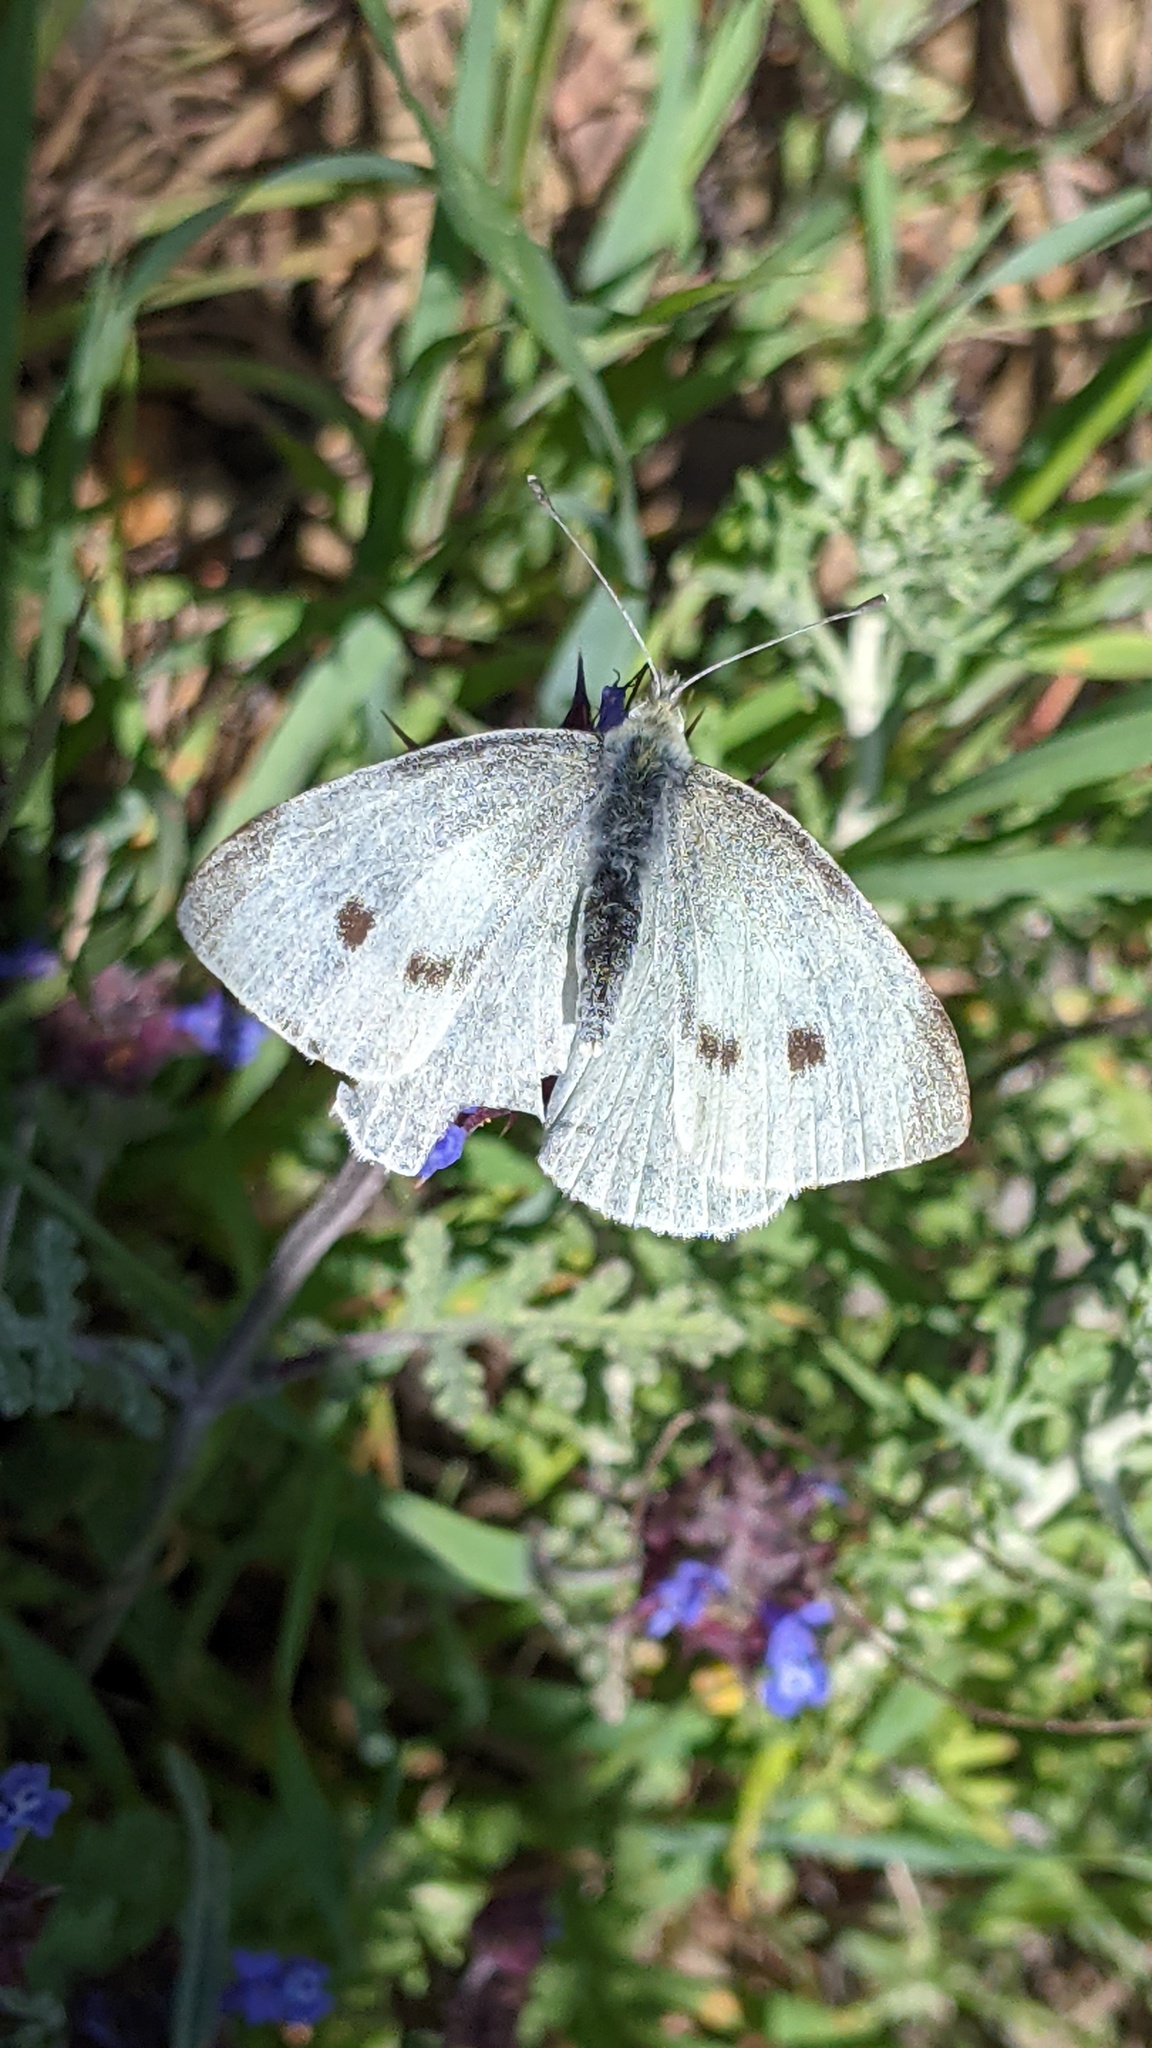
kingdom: Plantae
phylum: Tracheophyta
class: Magnoliopsida
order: Lamiales
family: Lamiaceae
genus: Salvia
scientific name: Salvia columbariae
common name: Chia
